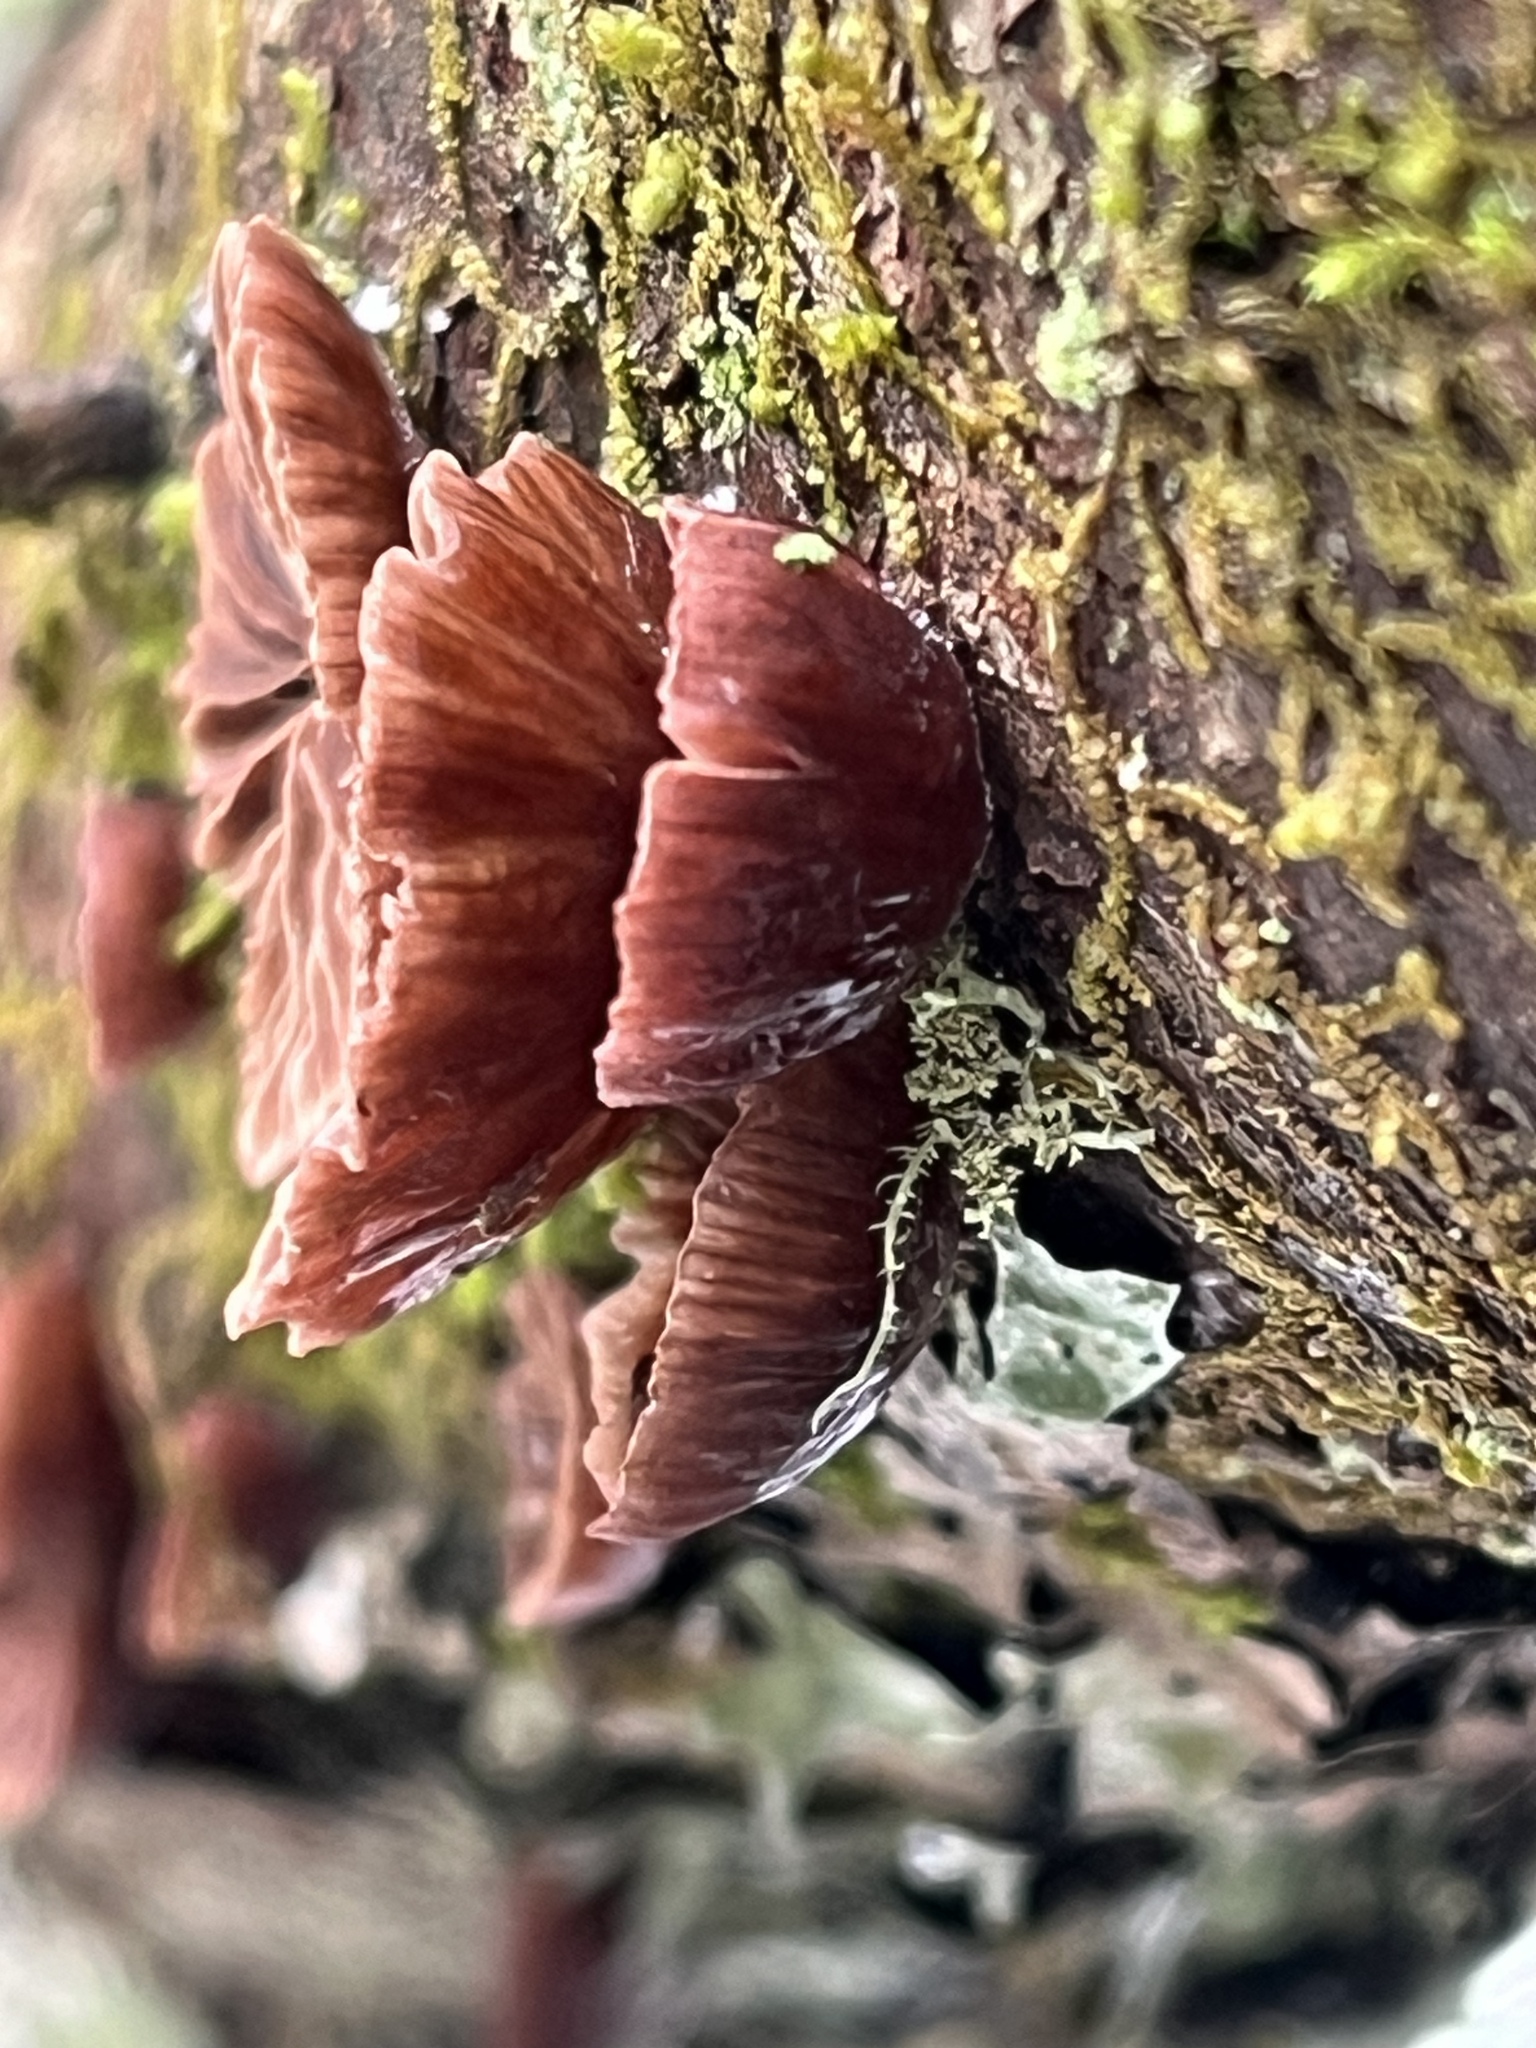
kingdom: Fungi
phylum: Basidiomycota
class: Agaricomycetes
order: Agaricales
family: Mycenaceae
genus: Panellus
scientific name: Panellus ringens
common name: Winter oysterling
